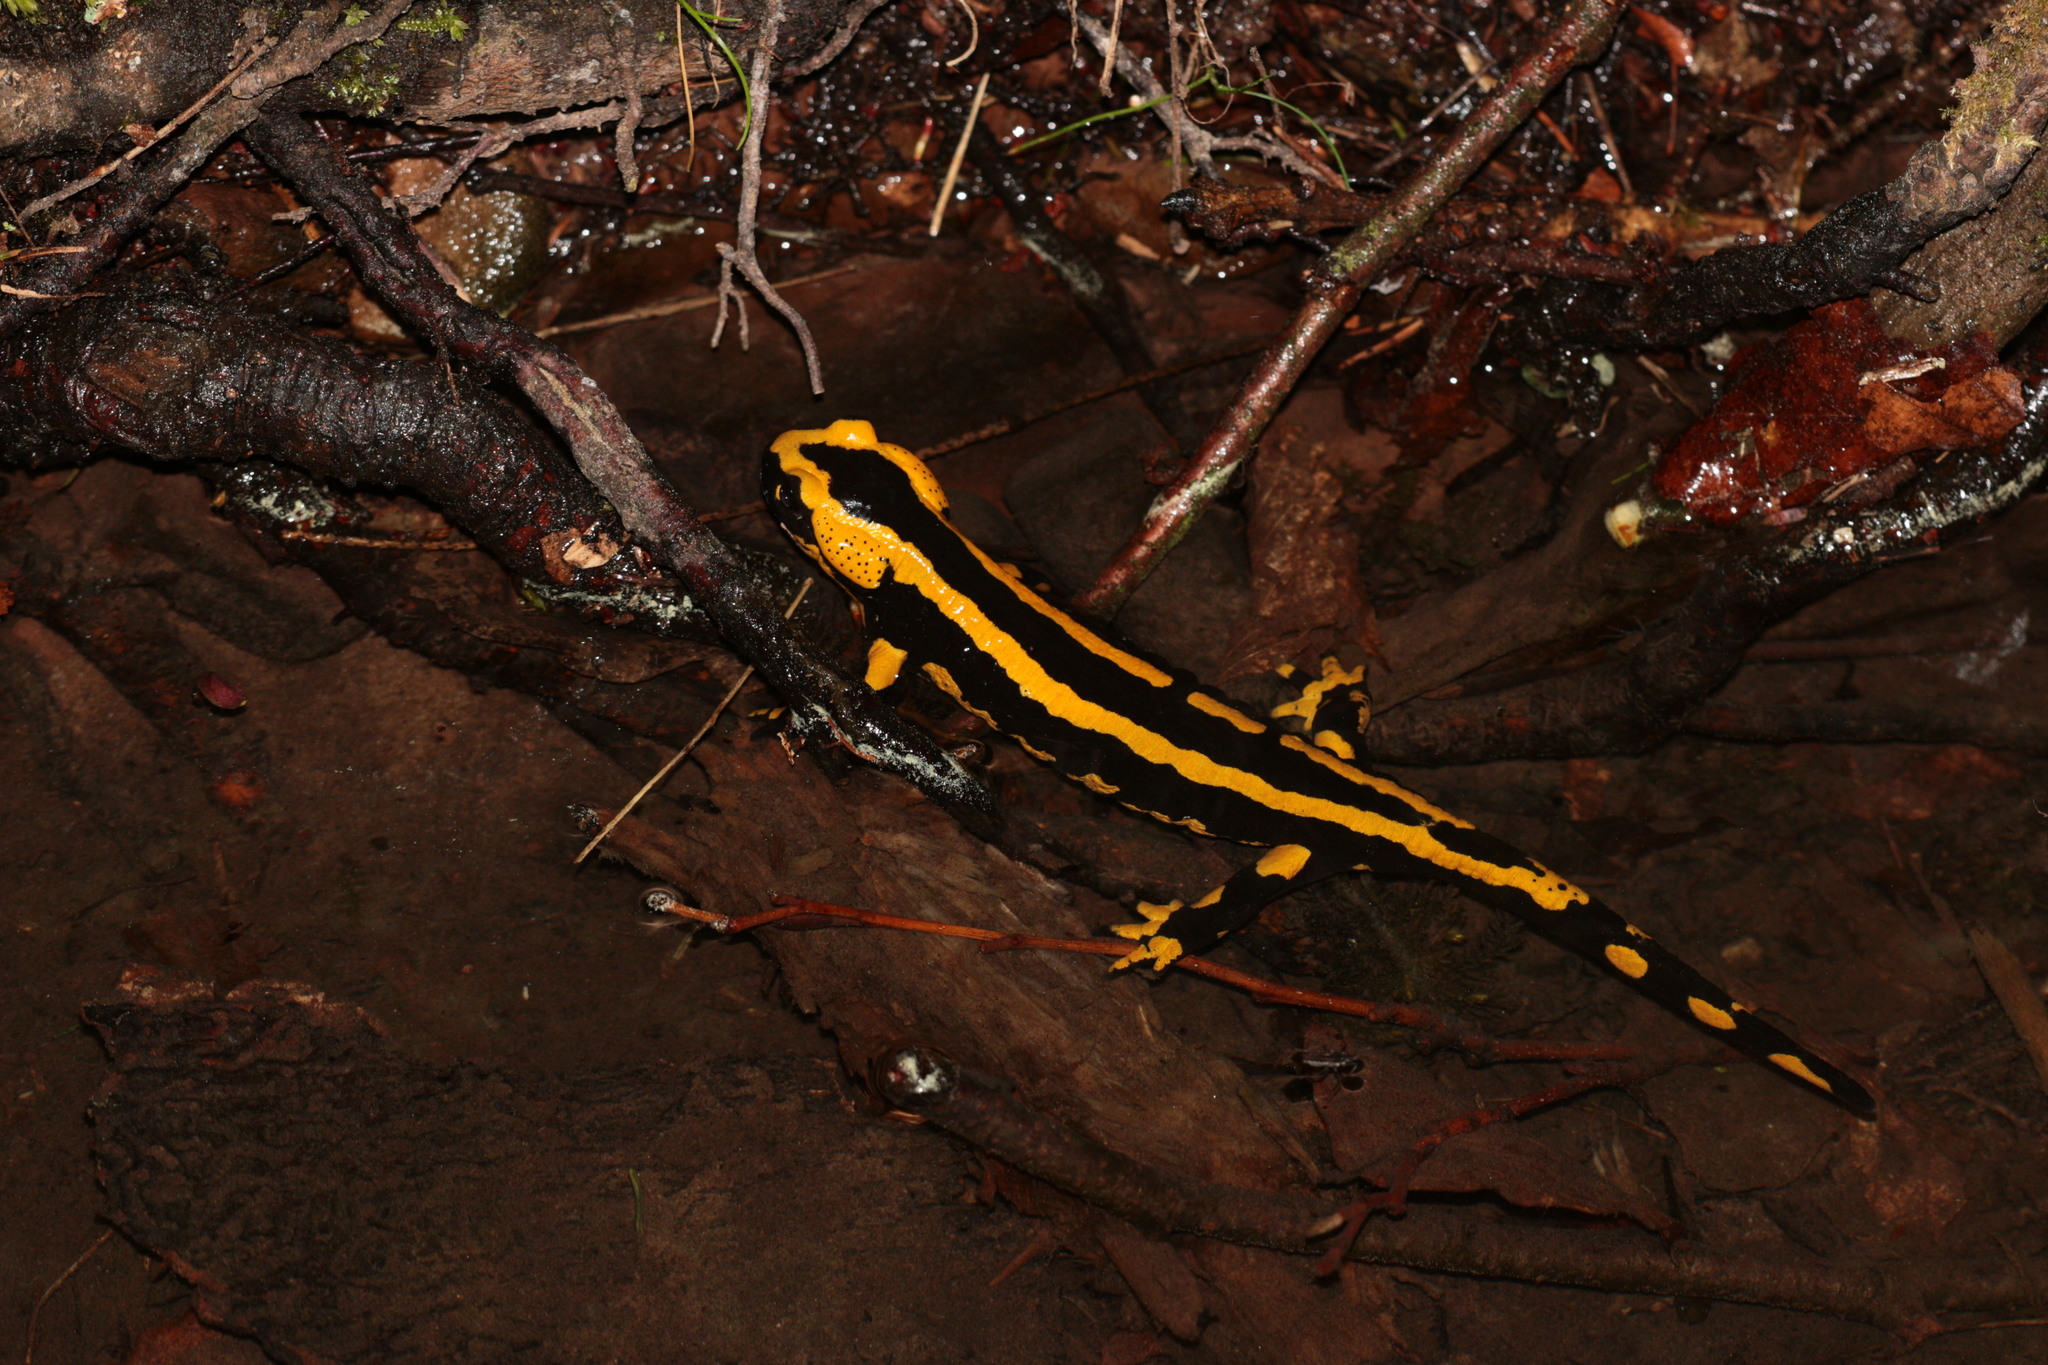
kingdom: Animalia
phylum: Chordata
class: Amphibia
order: Caudata
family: Salamandridae
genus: Salamandra
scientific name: Salamandra salamandra
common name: Fire salamander
